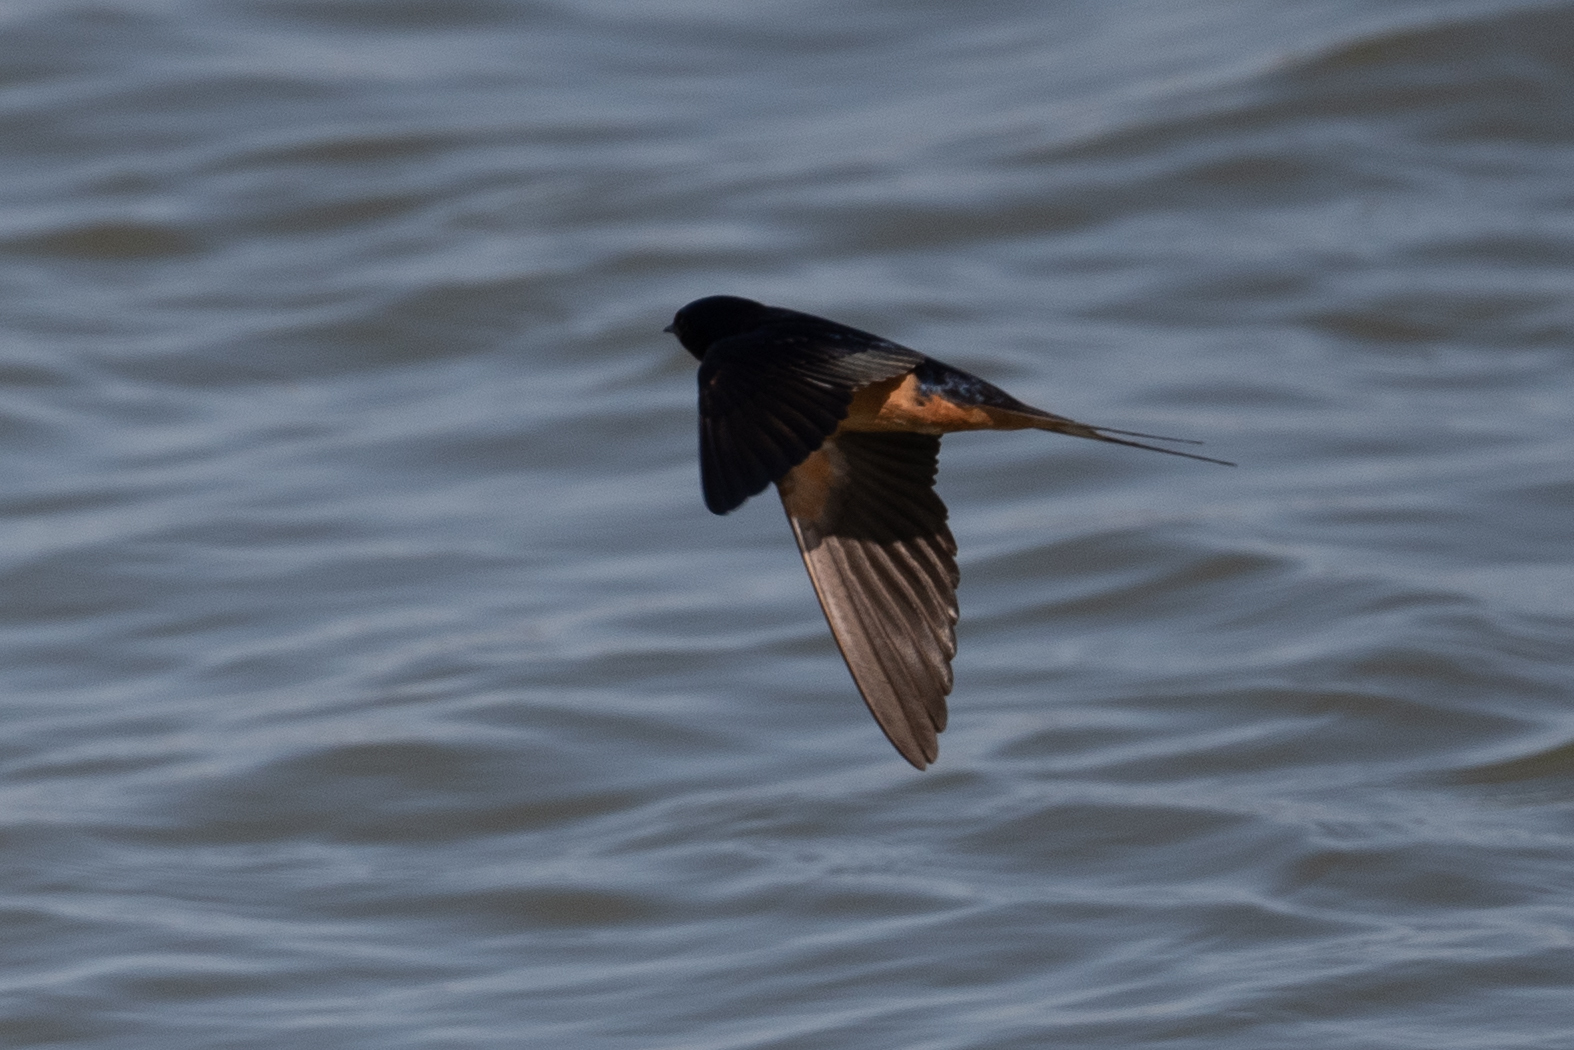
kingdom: Animalia
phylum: Chordata
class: Aves
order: Passeriformes
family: Hirundinidae
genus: Hirundo
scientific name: Hirundo rustica
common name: Barn swallow
